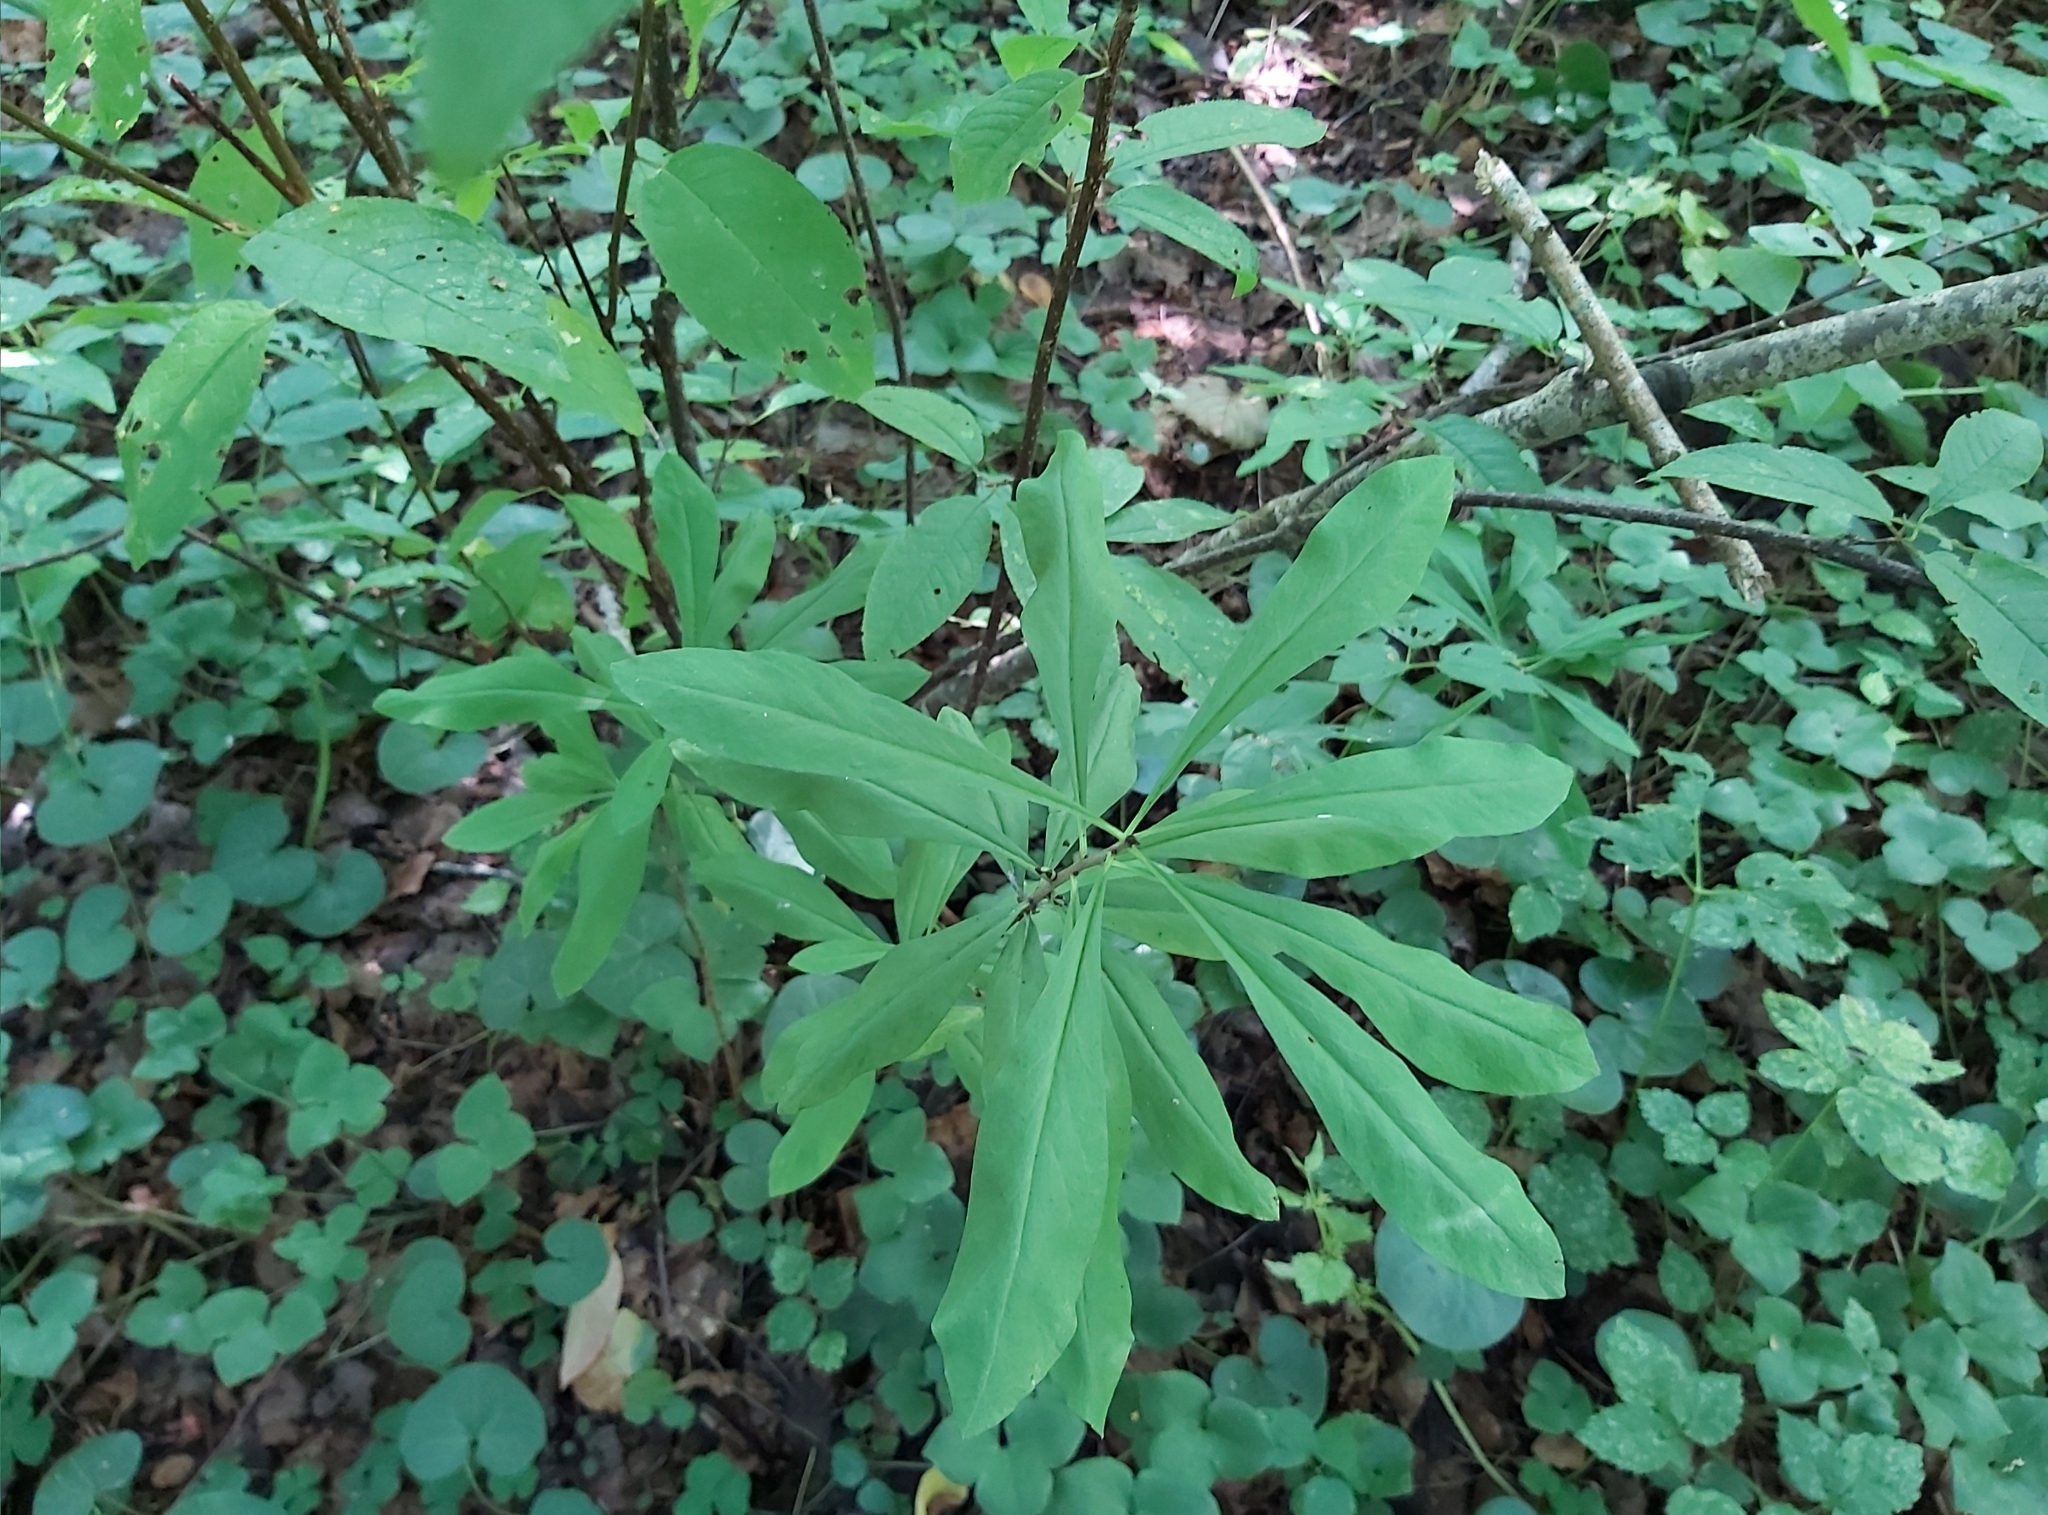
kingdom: Plantae
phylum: Tracheophyta
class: Magnoliopsida
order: Malvales
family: Thymelaeaceae
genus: Daphne
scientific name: Daphne mezereum
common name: Mezereon
